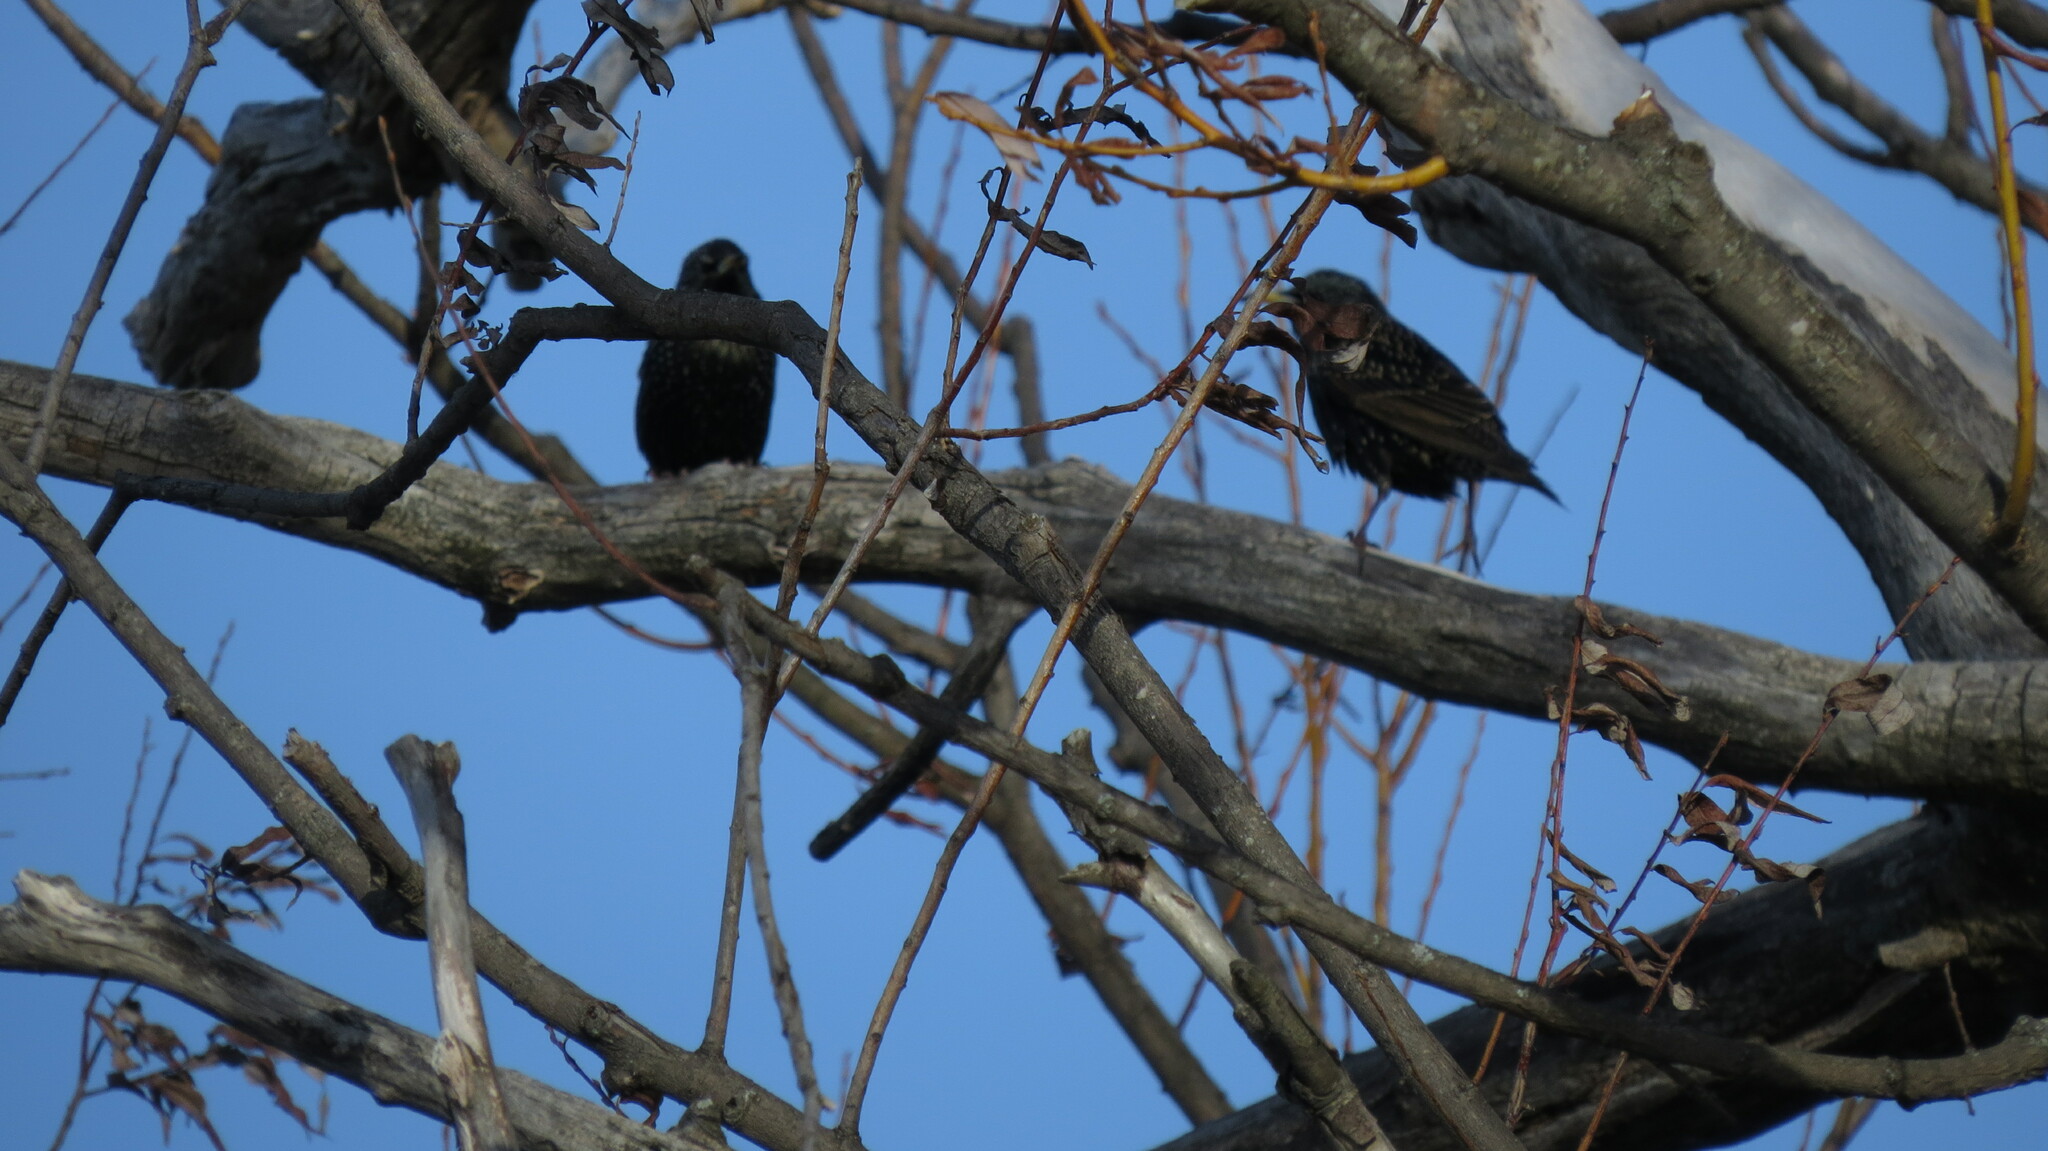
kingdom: Animalia
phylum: Chordata
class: Aves
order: Passeriformes
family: Sturnidae
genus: Sturnus
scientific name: Sturnus vulgaris
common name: Common starling
